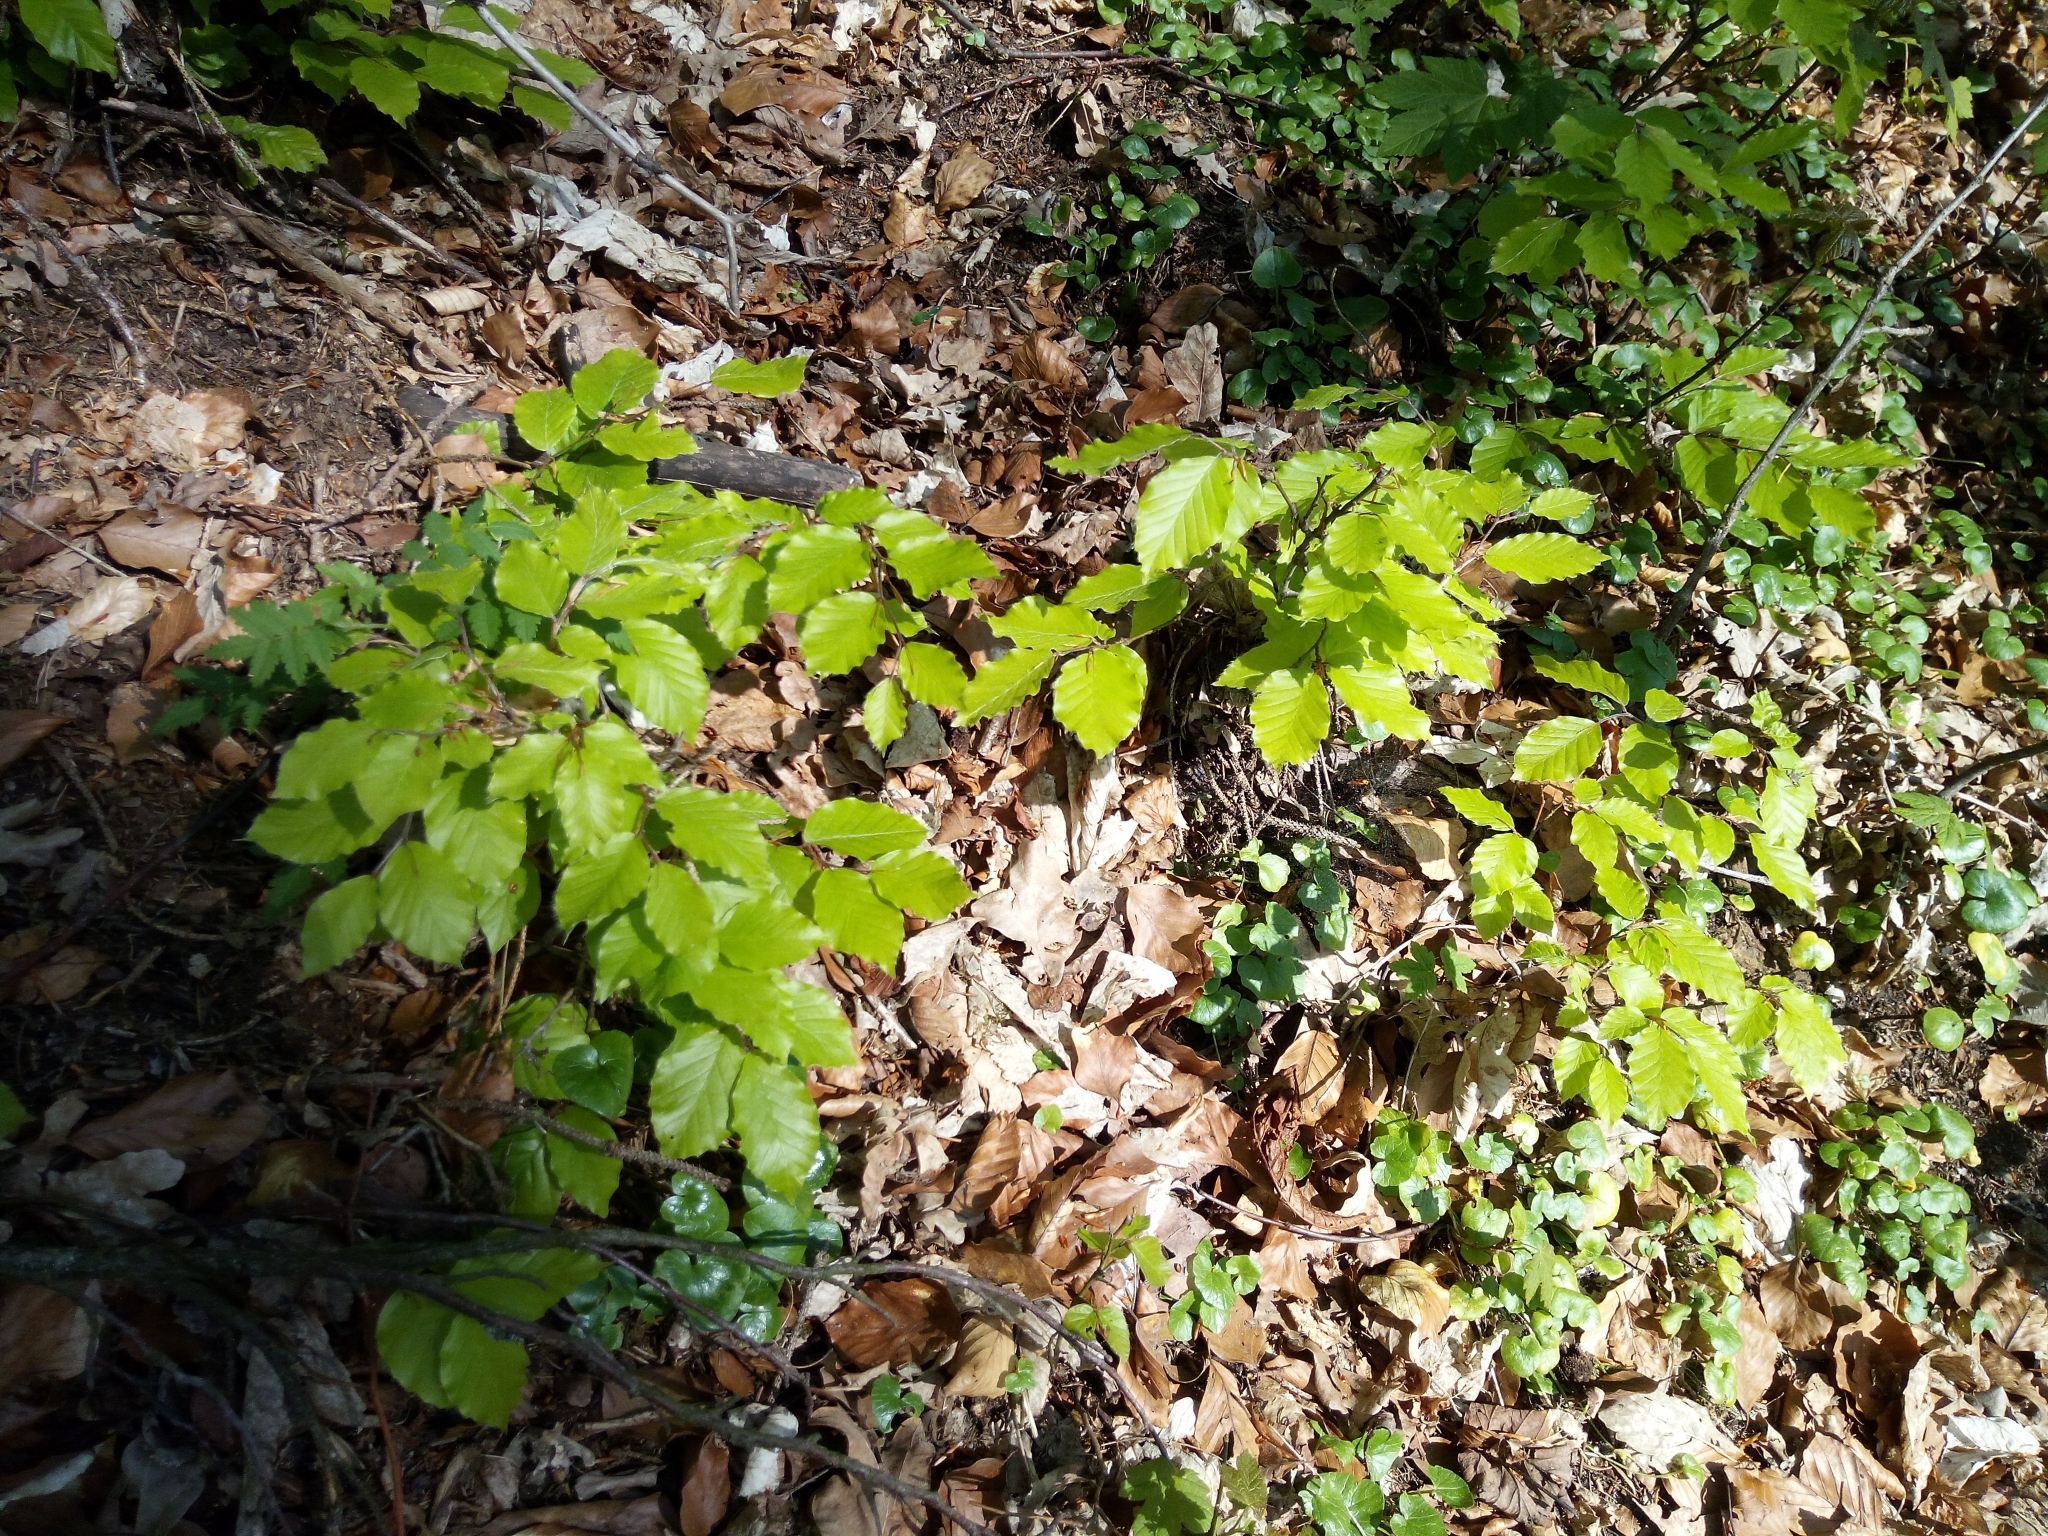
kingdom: Plantae
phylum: Tracheophyta
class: Magnoliopsida
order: Fagales
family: Fagaceae
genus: Fagus
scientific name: Fagus sylvatica
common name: Beech
